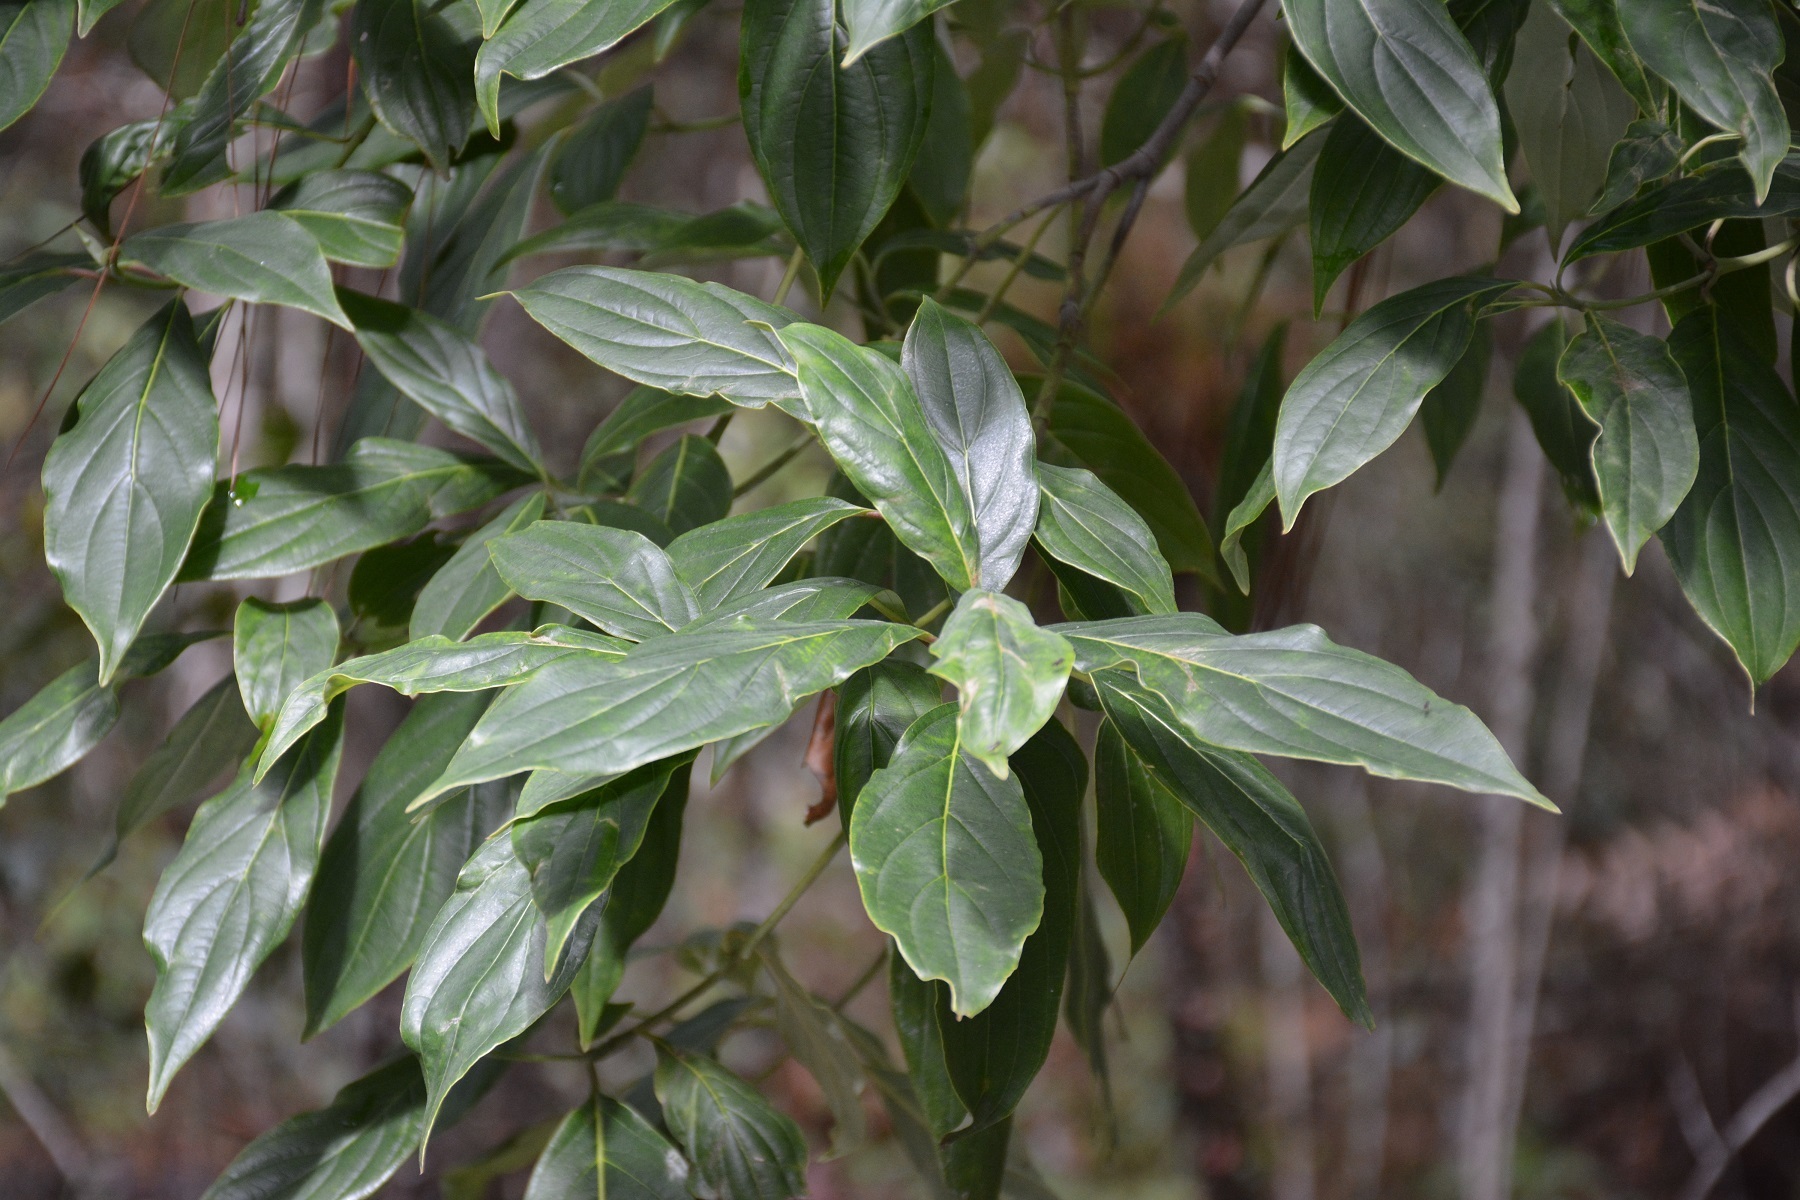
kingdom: Plantae
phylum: Tracheophyta
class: Magnoliopsida
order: Cornales
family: Cornaceae
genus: Cornus
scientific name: Cornus disciflora
